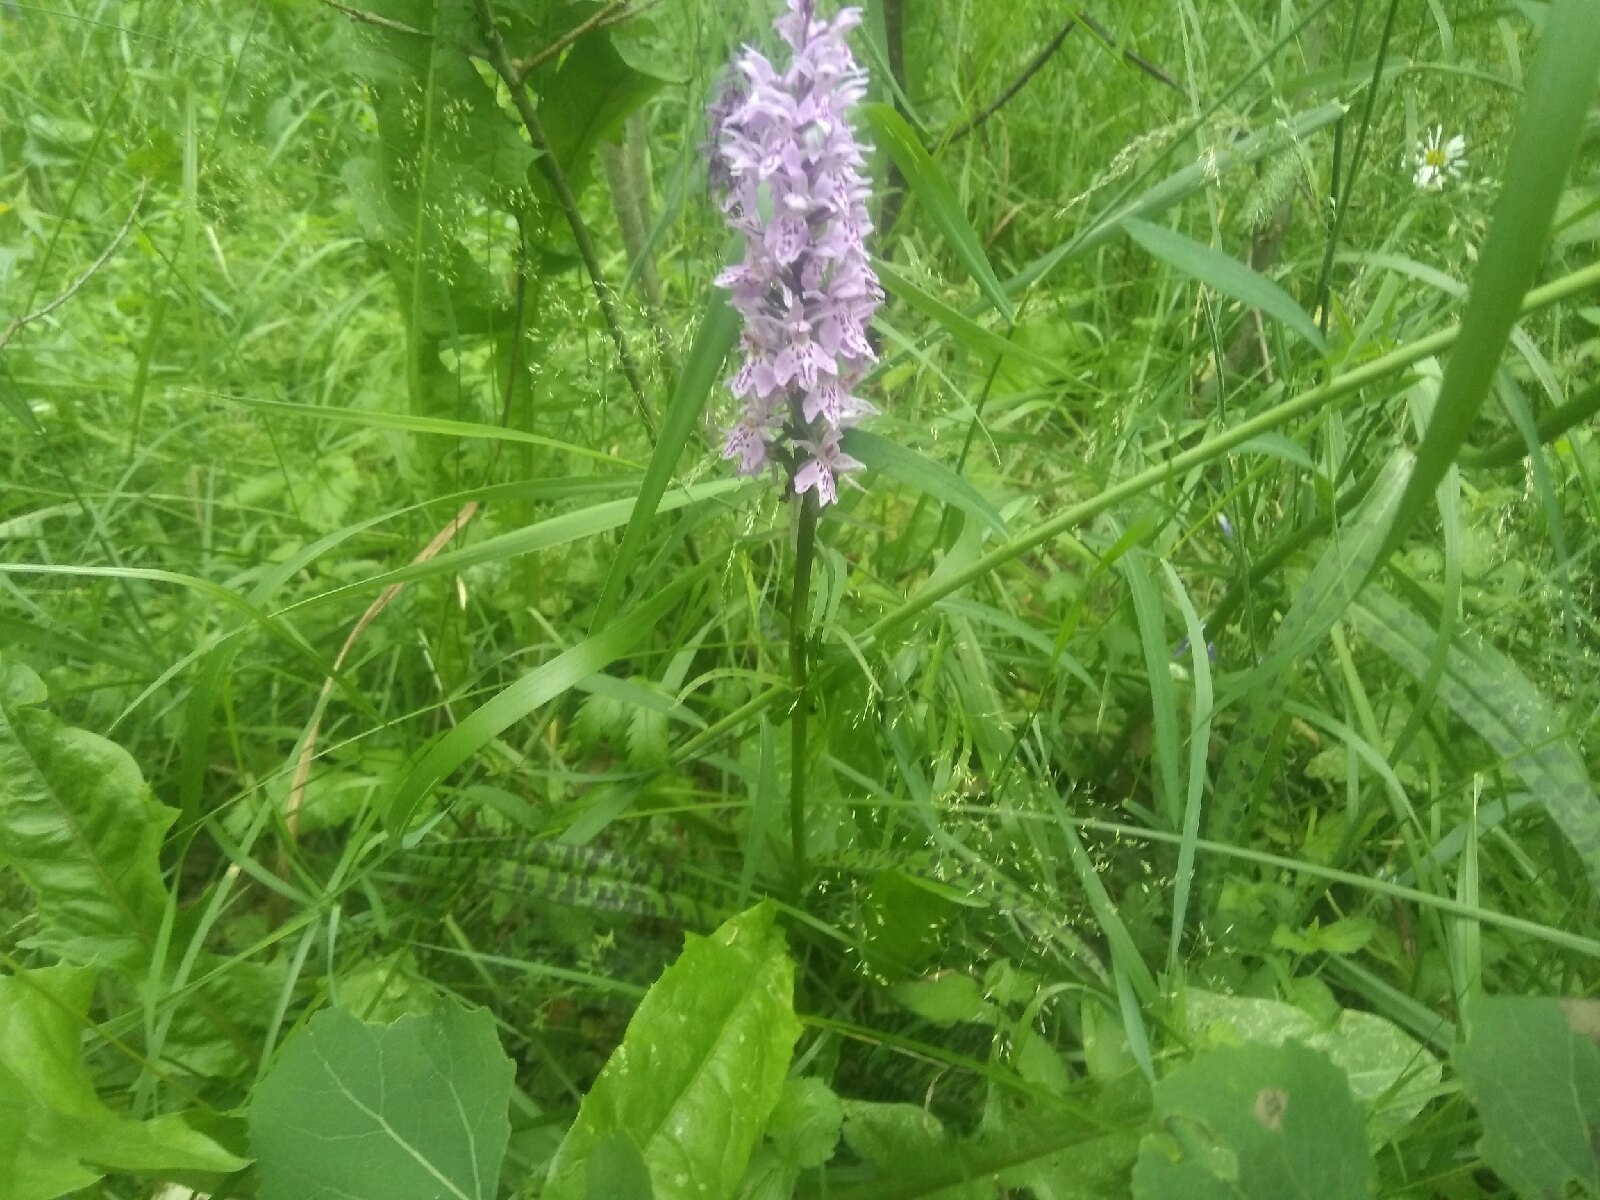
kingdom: Plantae
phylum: Tracheophyta
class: Liliopsida
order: Asparagales
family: Orchidaceae
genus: Dactylorhiza
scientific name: Dactylorhiza maculata
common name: Heath spotted-orchid
